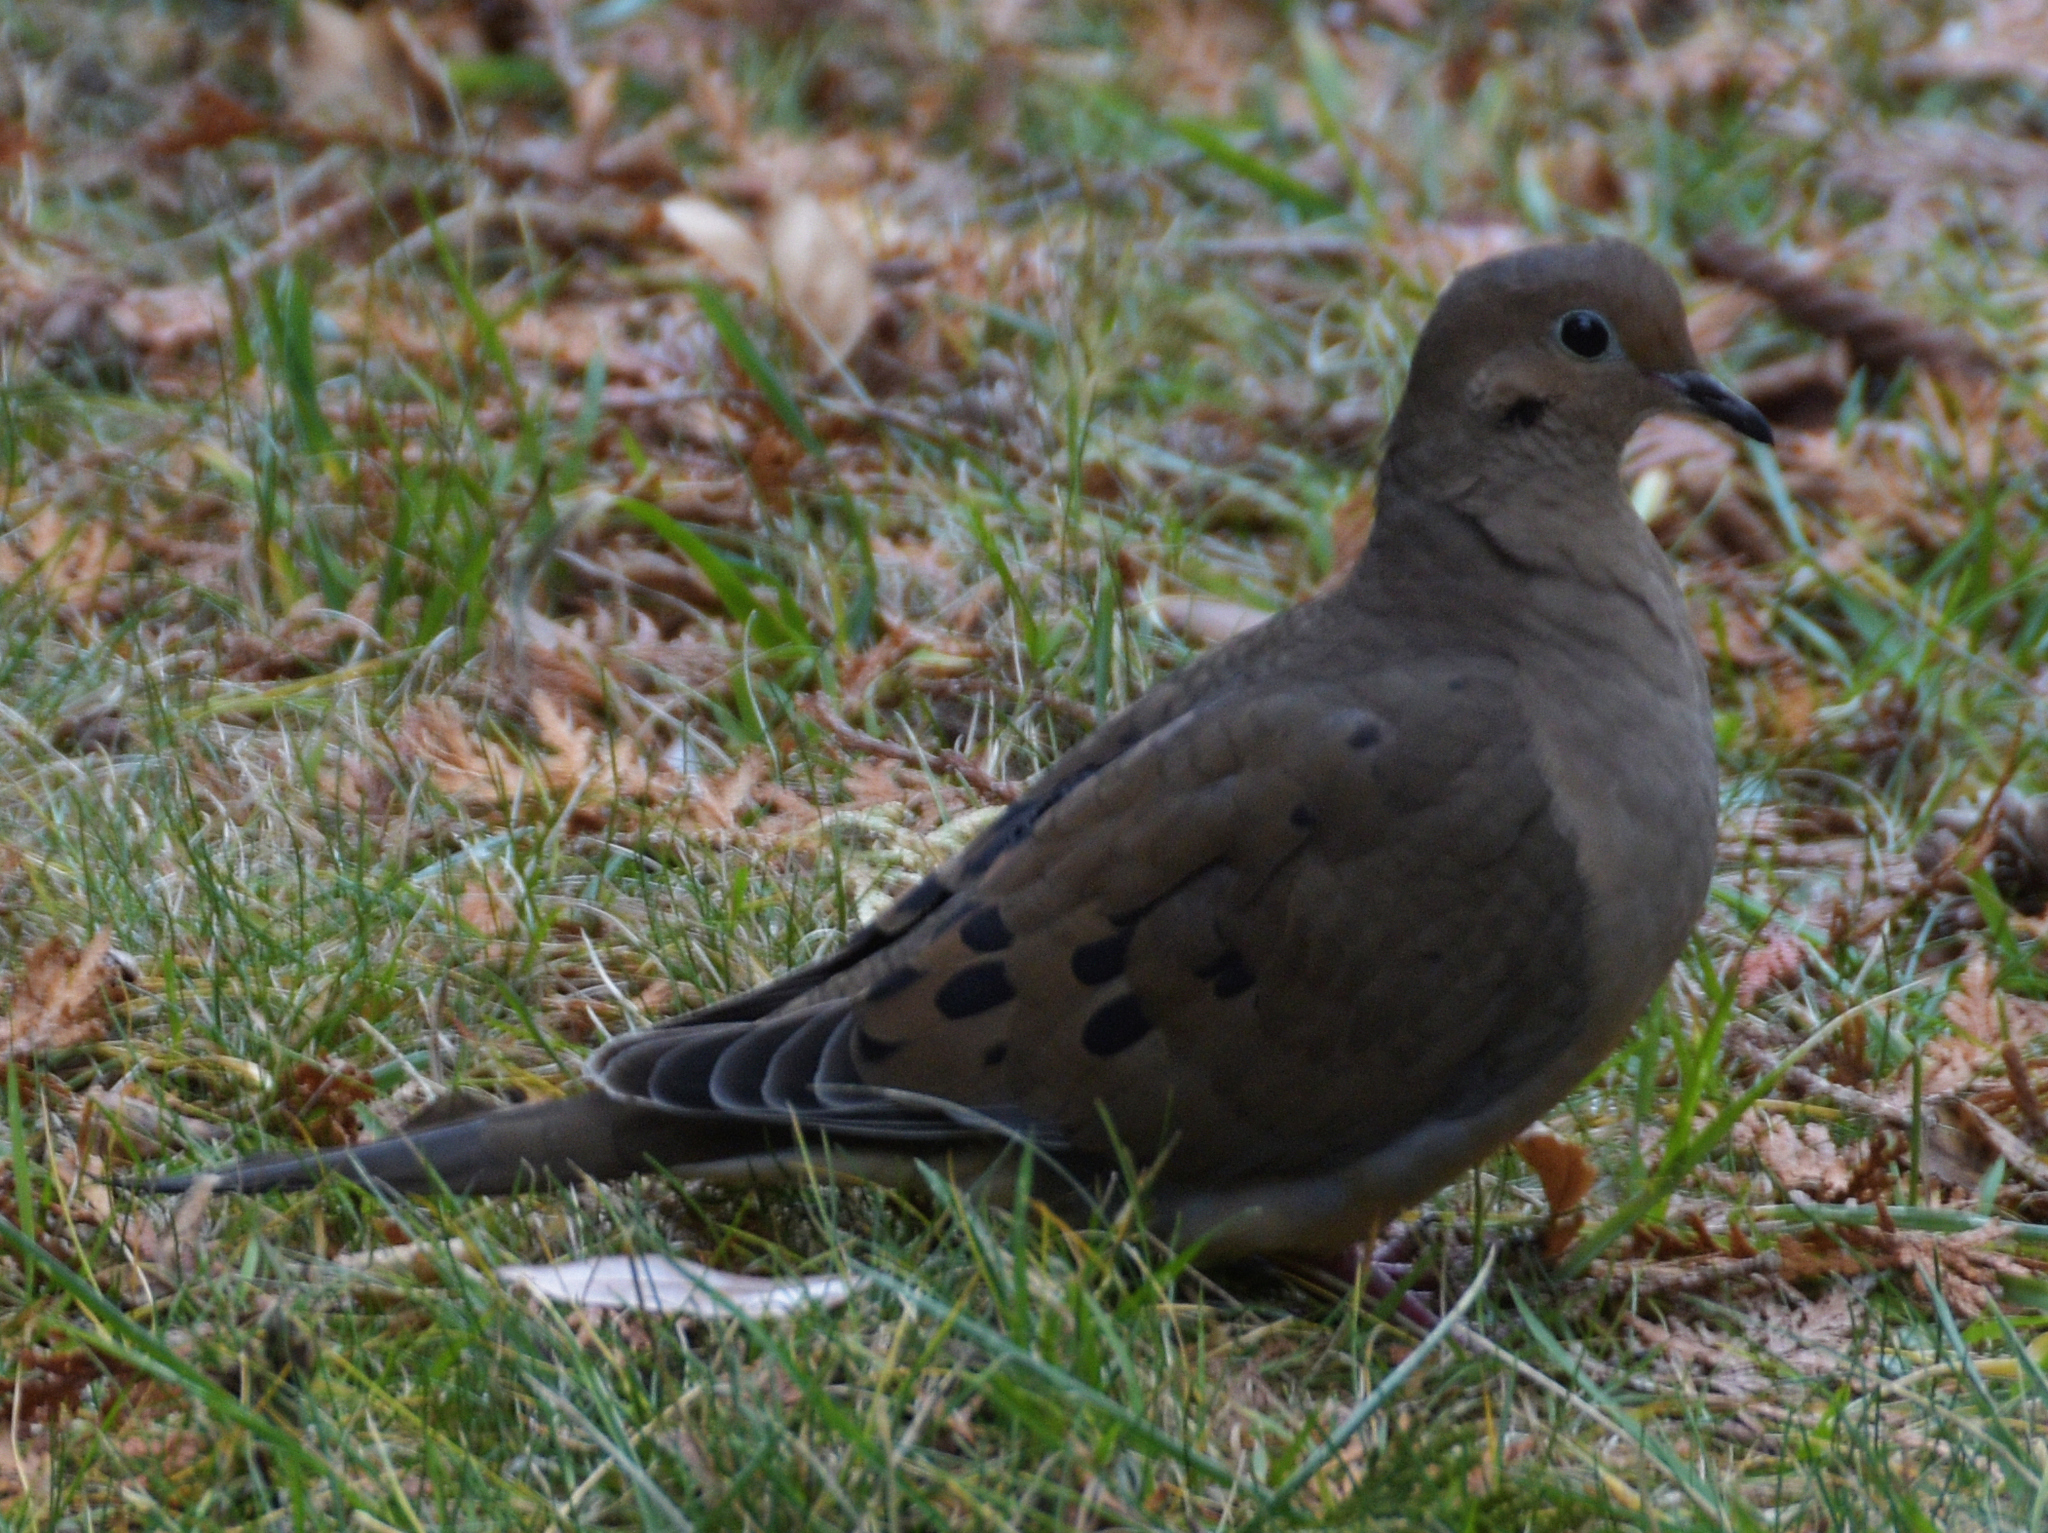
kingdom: Animalia
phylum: Chordata
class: Aves
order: Columbiformes
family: Columbidae
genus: Zenaida
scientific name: Zenaida macroura
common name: Mourning dove
